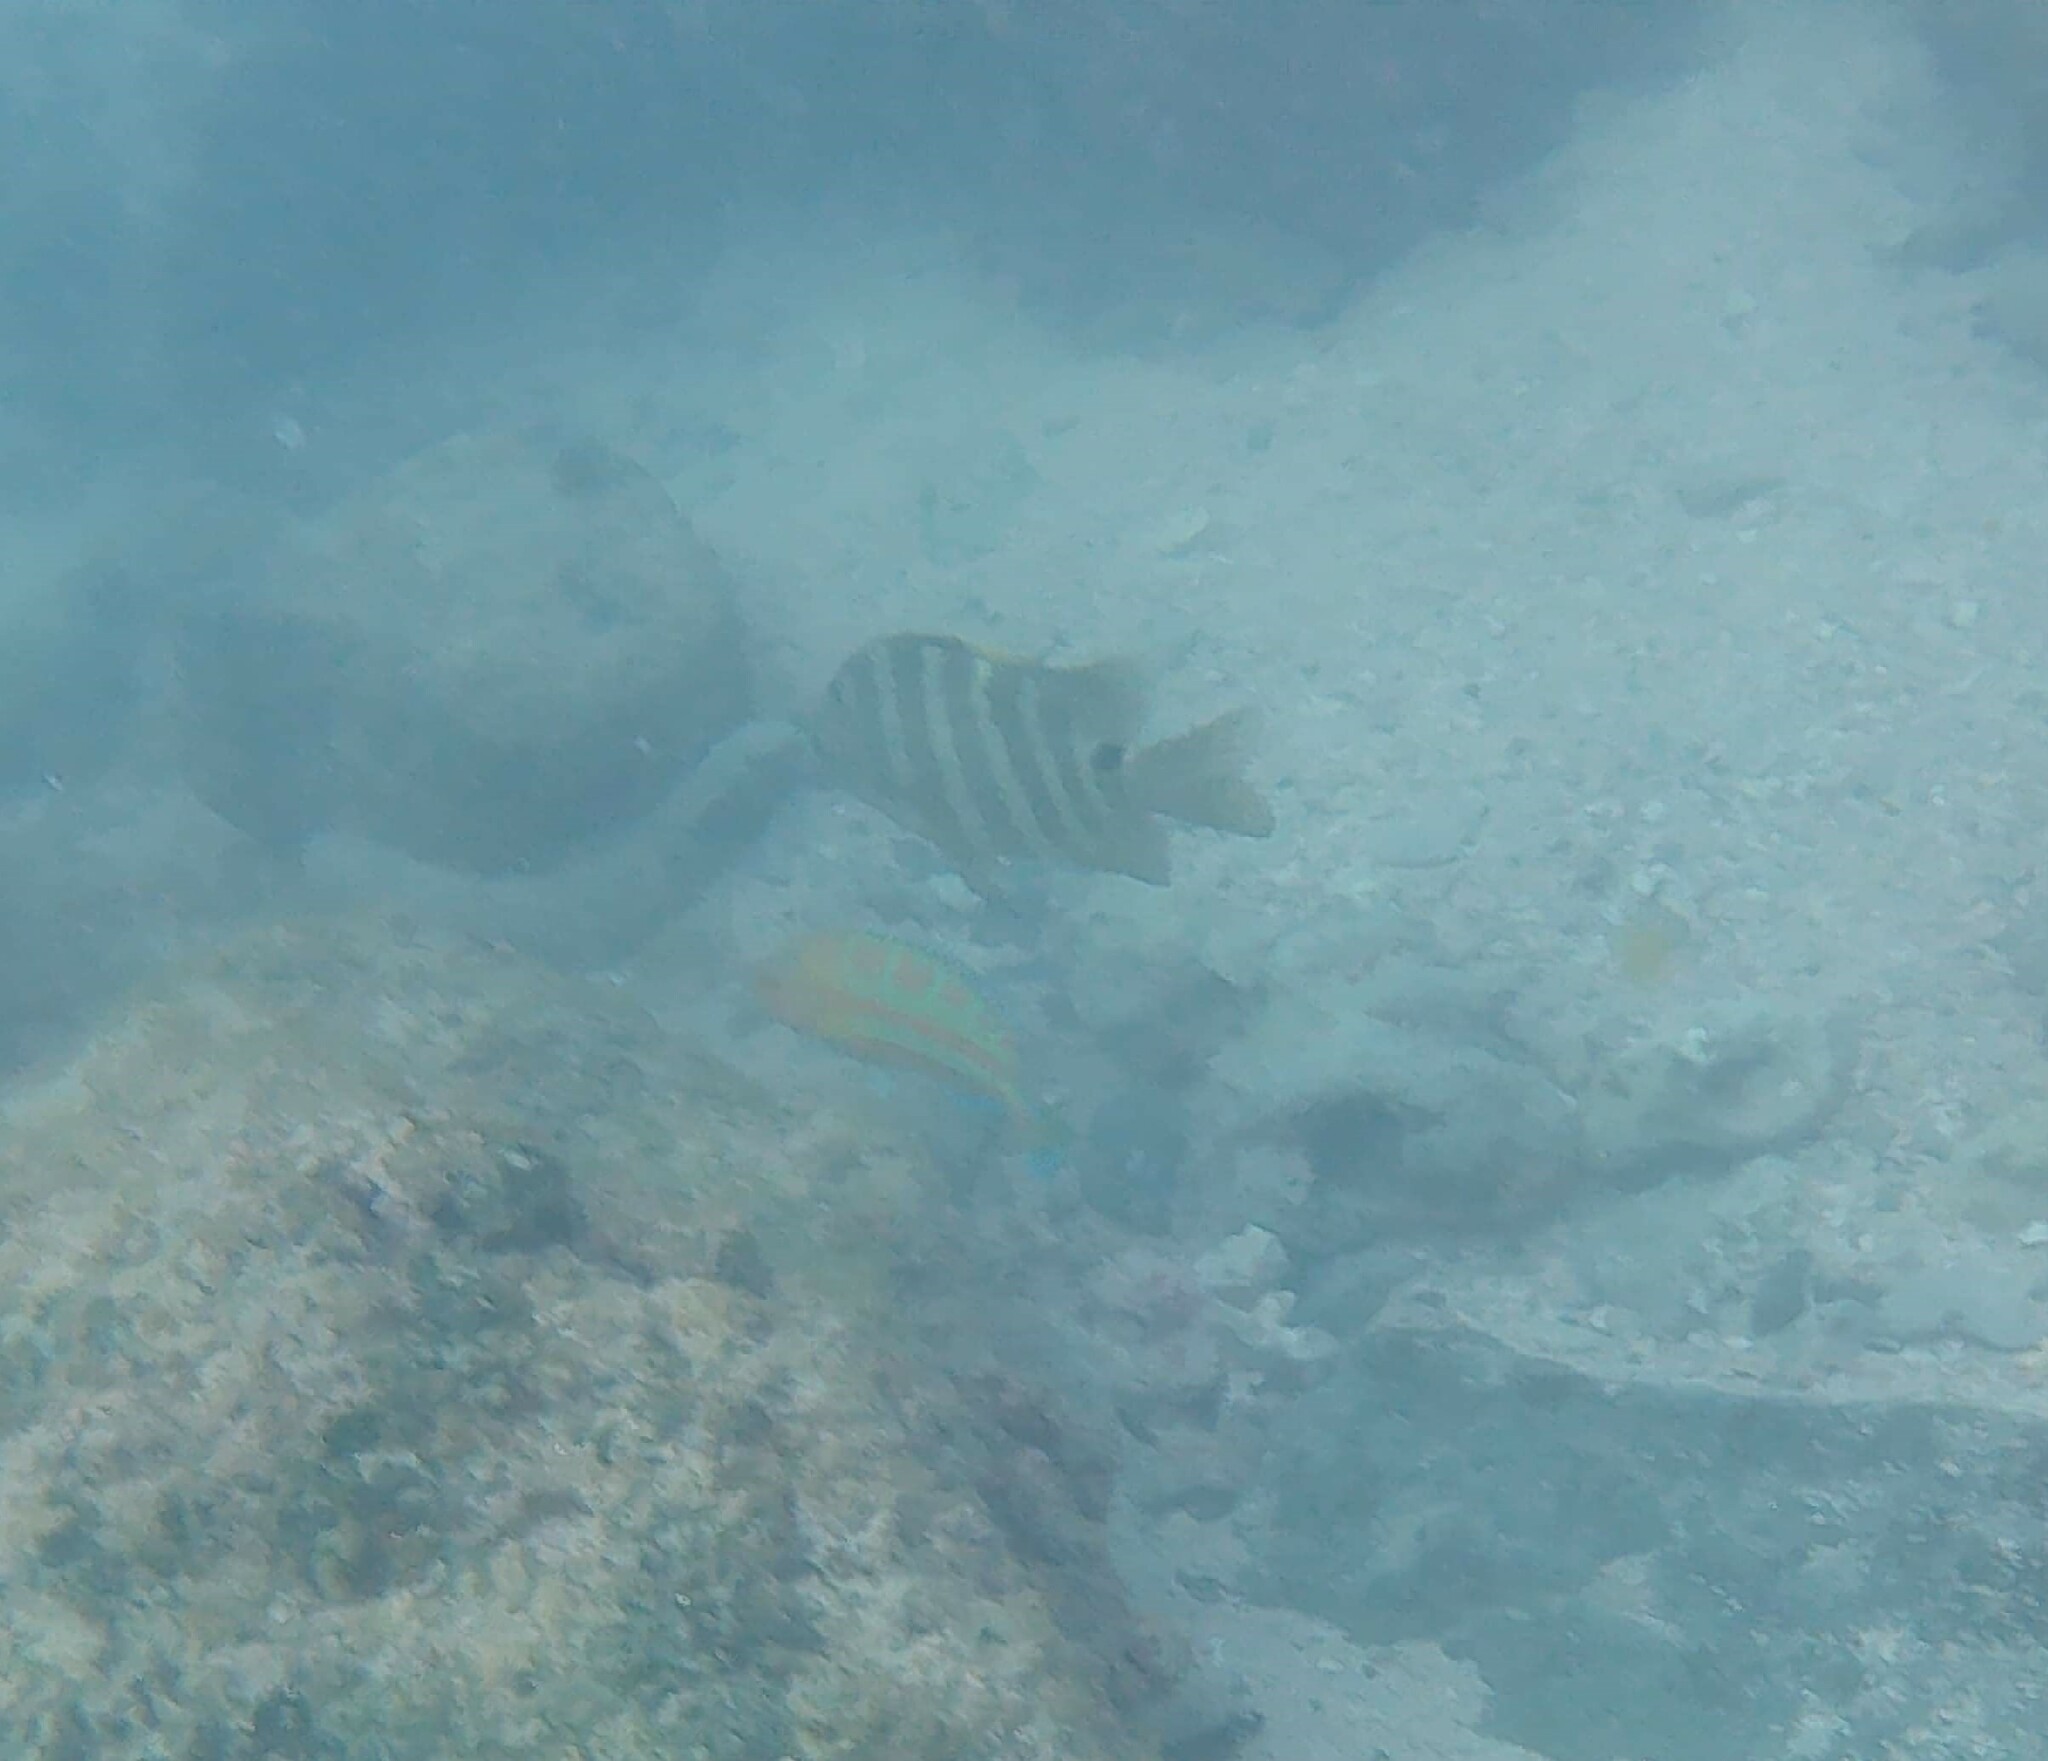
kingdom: Animalia
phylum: Chordata
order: Perciformes
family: Pomacentridae
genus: Abudefduf
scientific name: Abudefduf sordidus
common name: Blackspot sergeant
